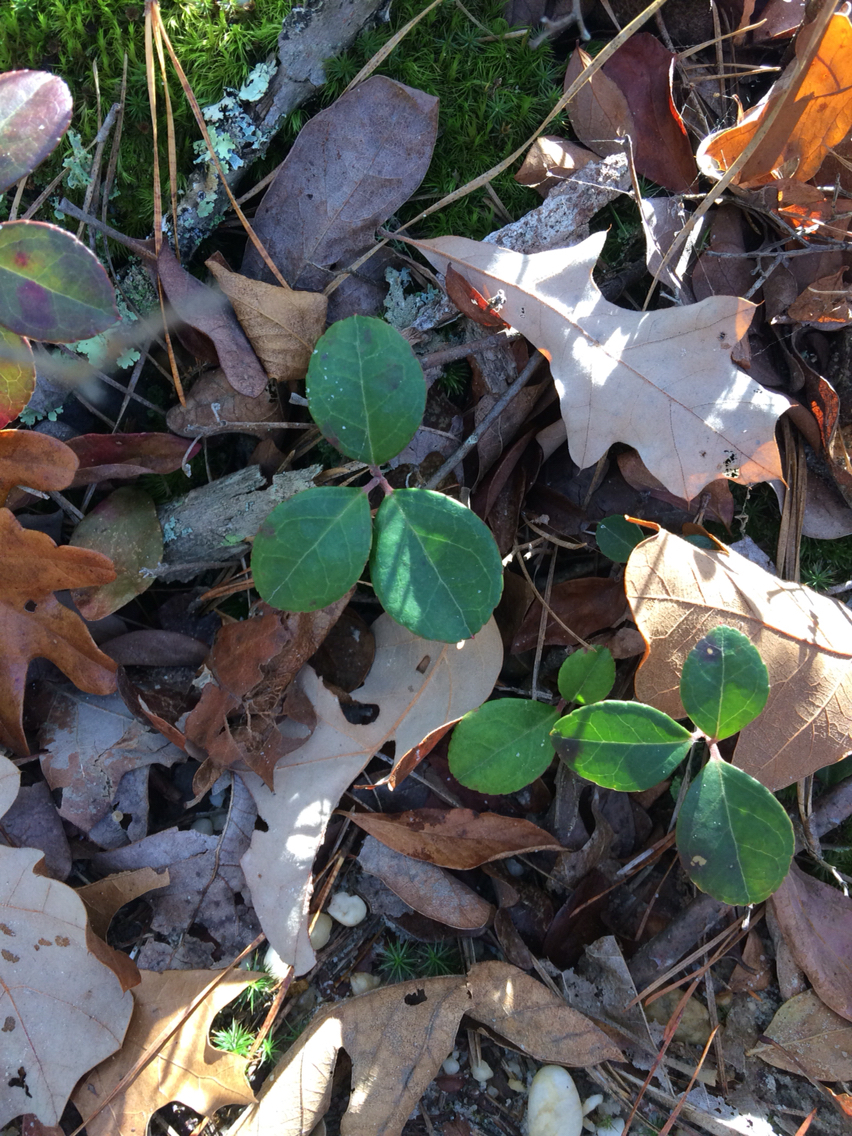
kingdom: Plantae
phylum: Tracheophyta
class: Magnoliopsida
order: Ericales
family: Ericaceae
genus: Gaultheria
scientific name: Gaultheria procumbens
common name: Checkerberry
